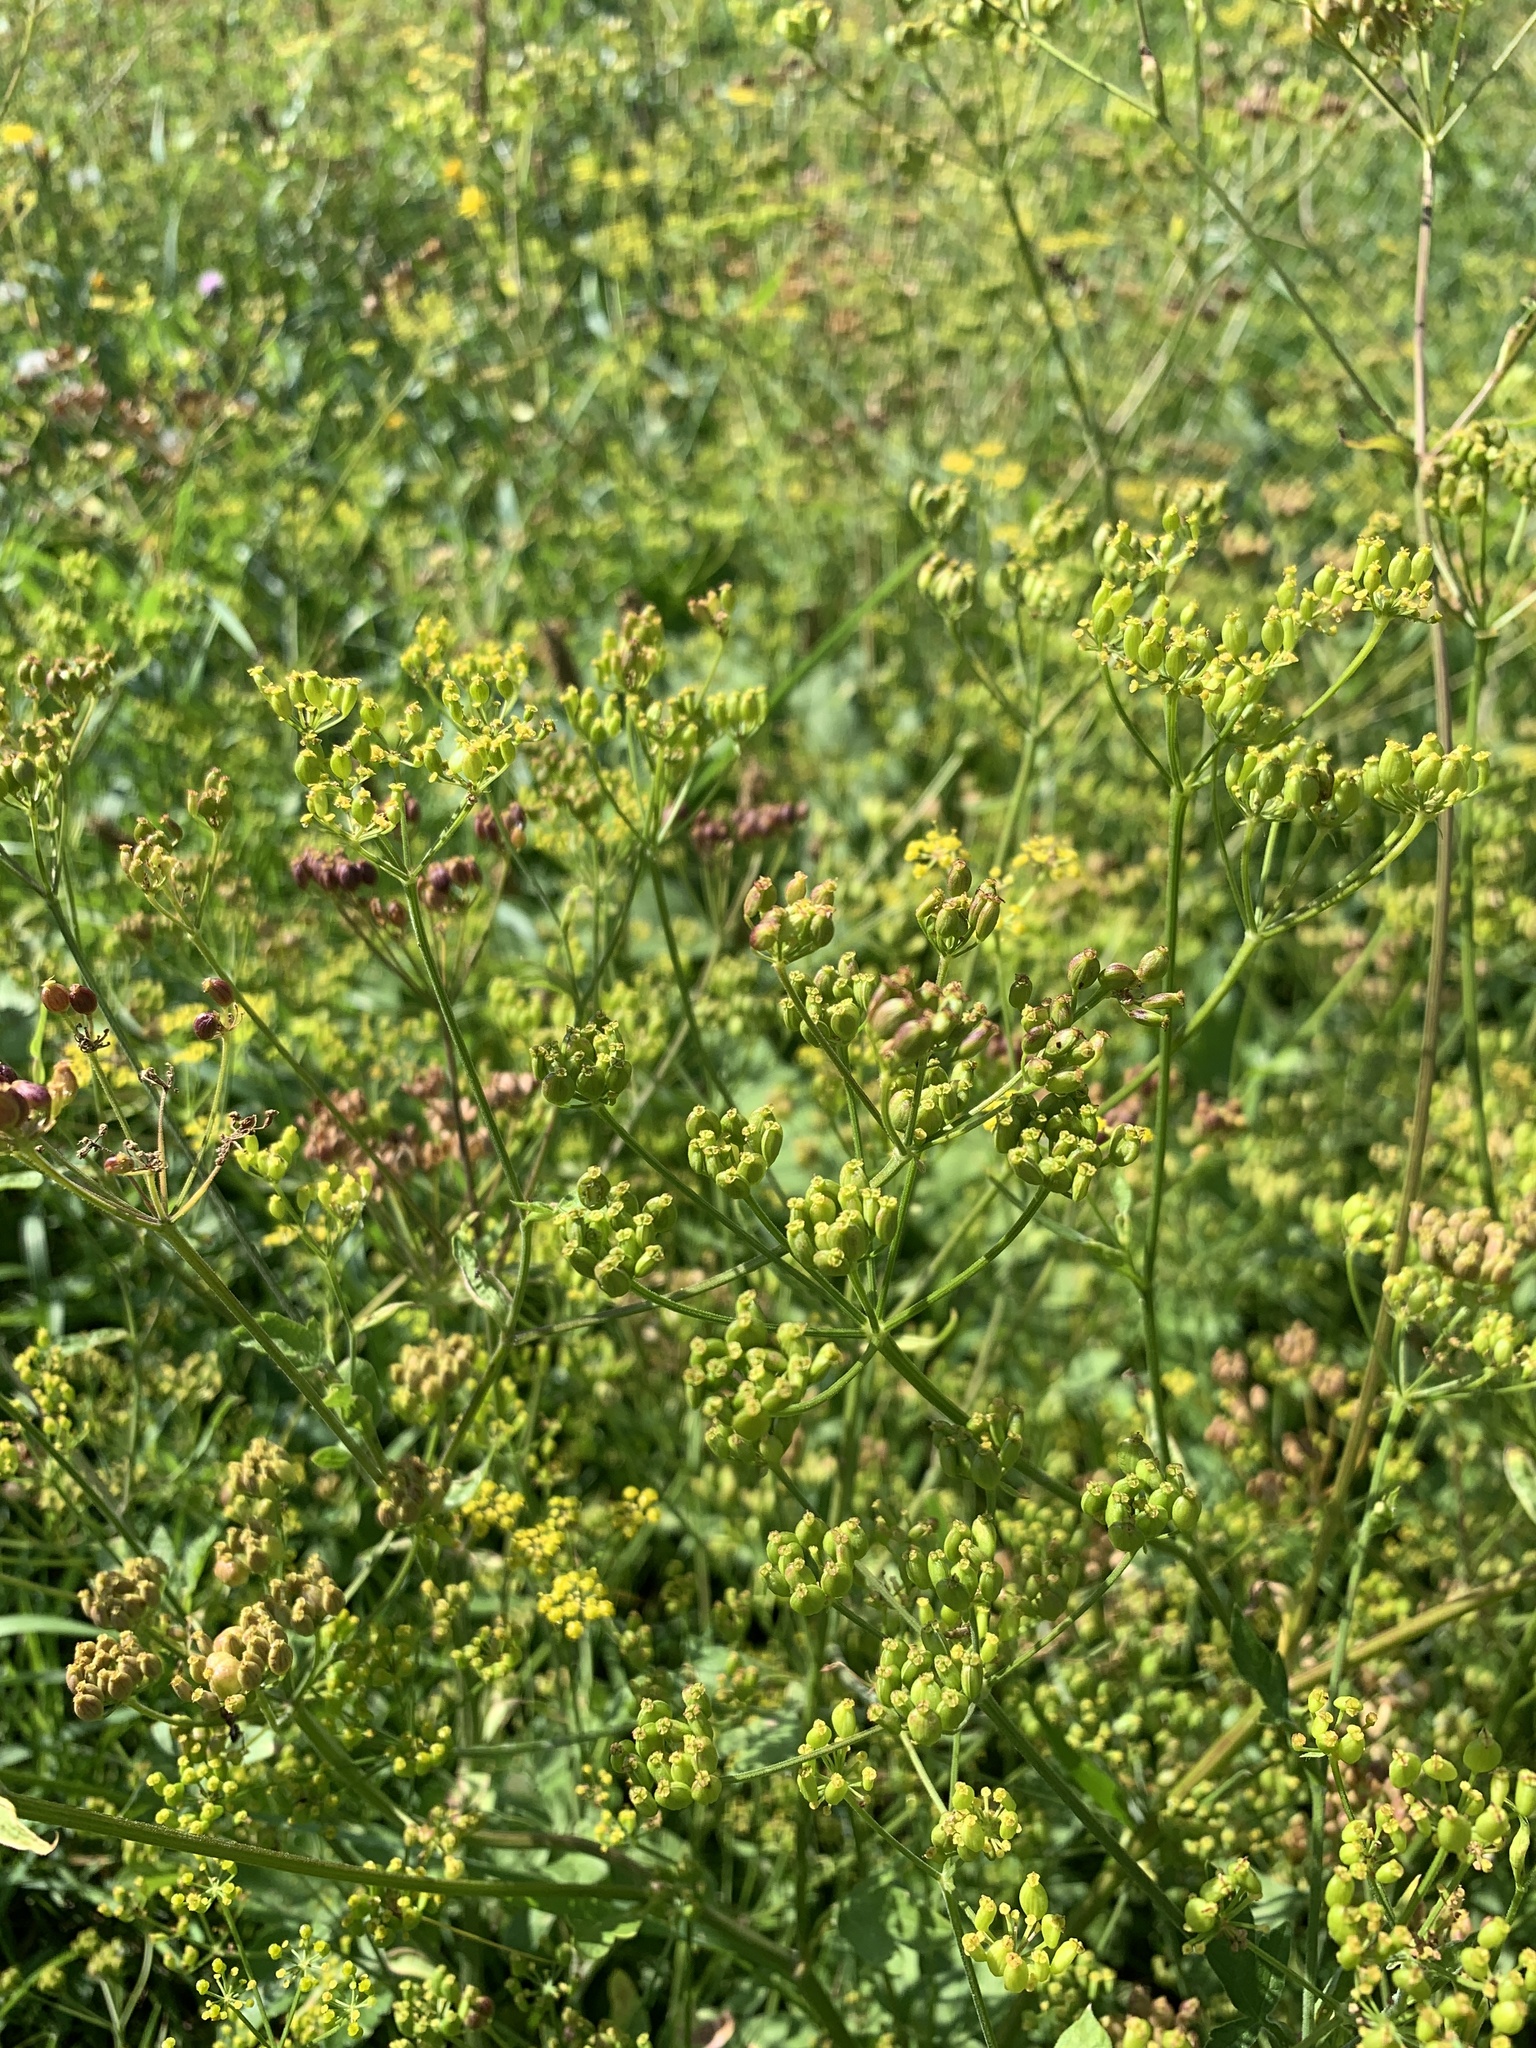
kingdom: Plantae
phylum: Tracheophyta
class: Magnoliopsida
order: Apiales
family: Apiaceae
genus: Pastinaca
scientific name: Pastinaca sativa
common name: Wild parsnip
